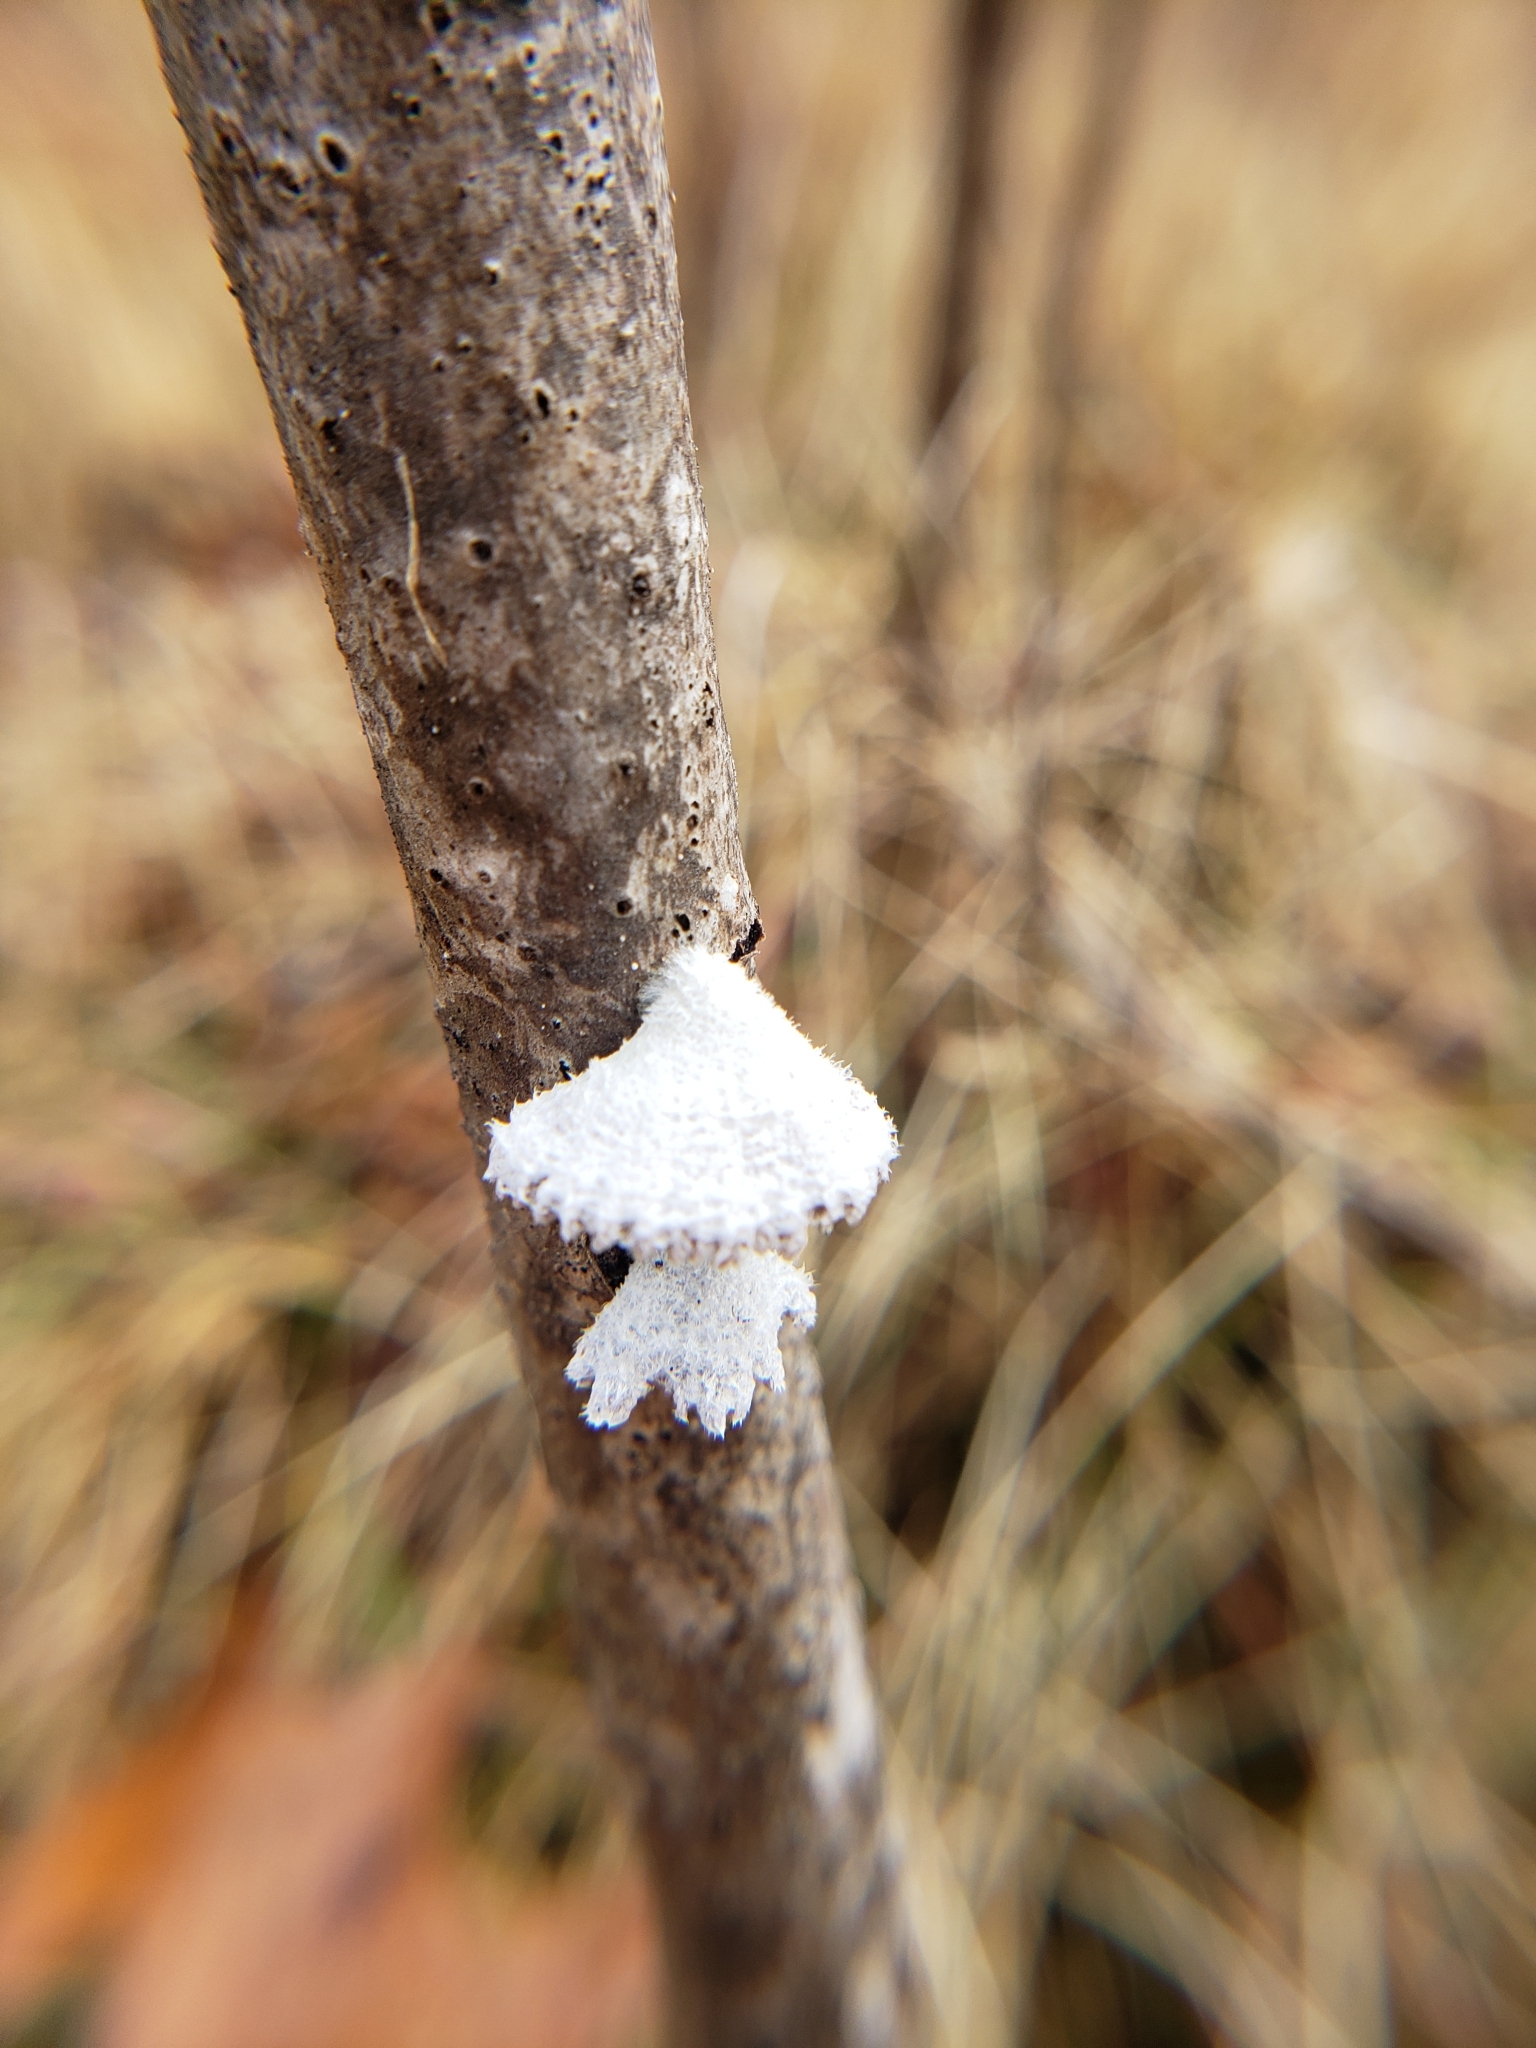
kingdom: Fungi
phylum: Basidiomycota
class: Agaricomycetes
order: Agaricales
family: Schizophyllaceae
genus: Schizophyllum
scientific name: Schizophyllum commune
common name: Common porecrust
